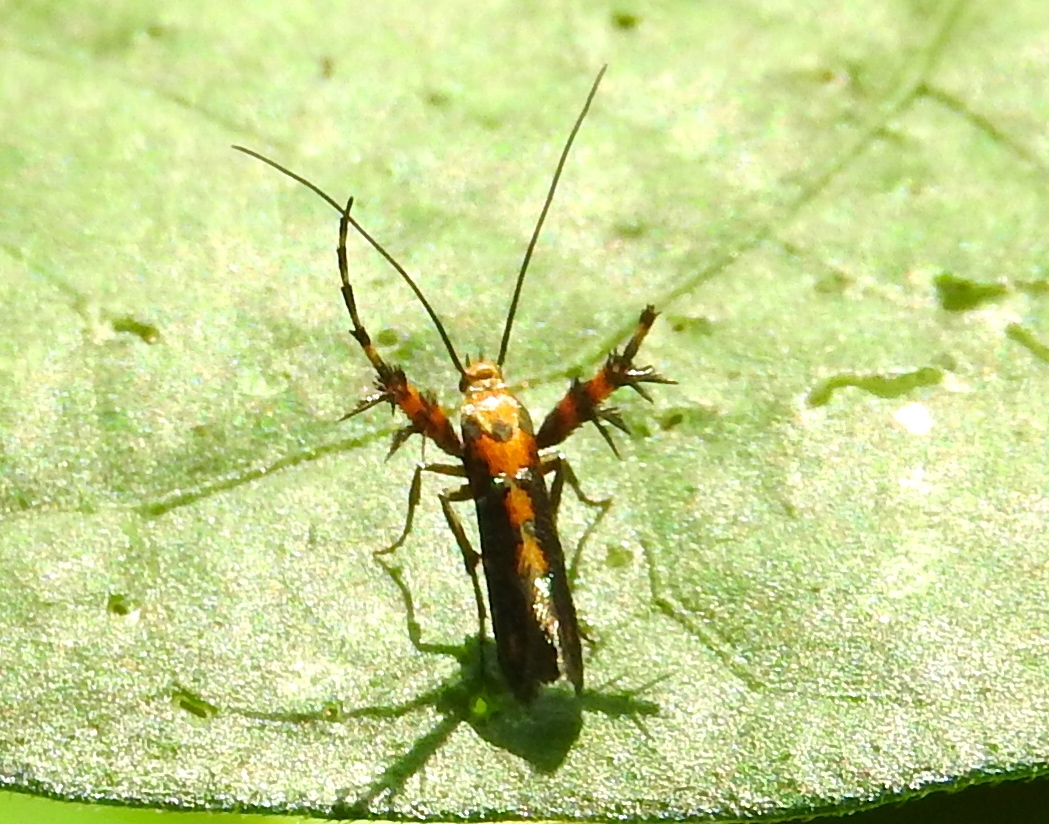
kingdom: Animalia
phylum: Arthropoda
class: Insecta
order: Lepidoptera
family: Heliodinidae
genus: Heliodines
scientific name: Heliodines
